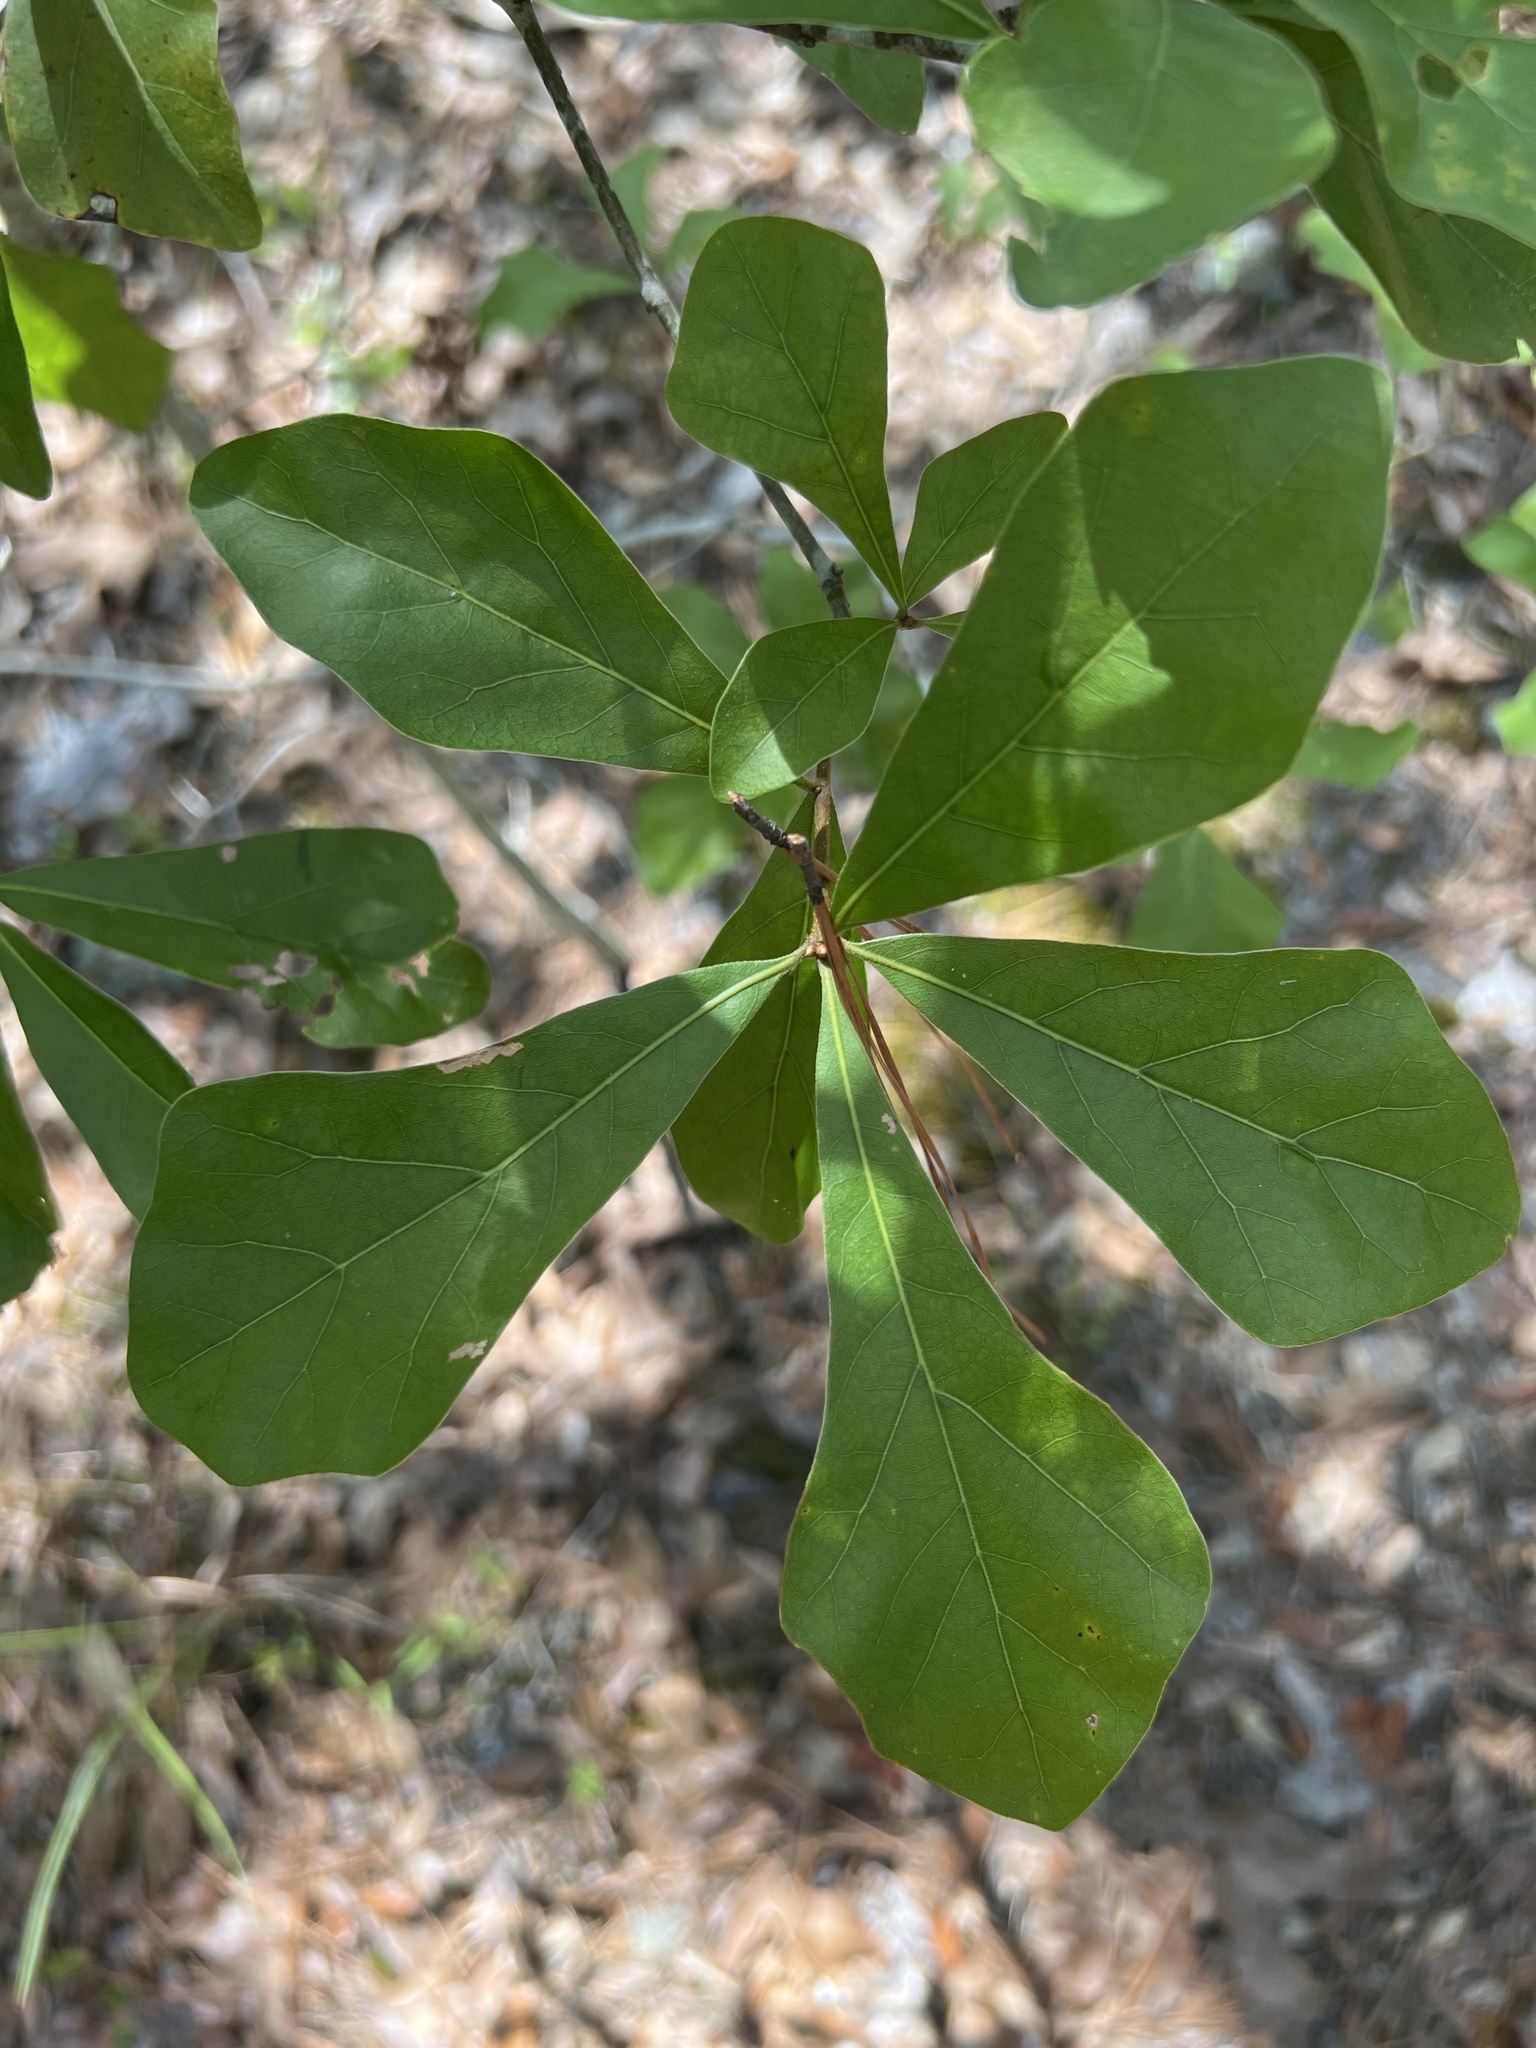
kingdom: Plantae
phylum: Tracheophyta
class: Magnoliopsida
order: Fagales
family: Fagaceae
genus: Quercus
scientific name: Quercus nigra
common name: Water oak
